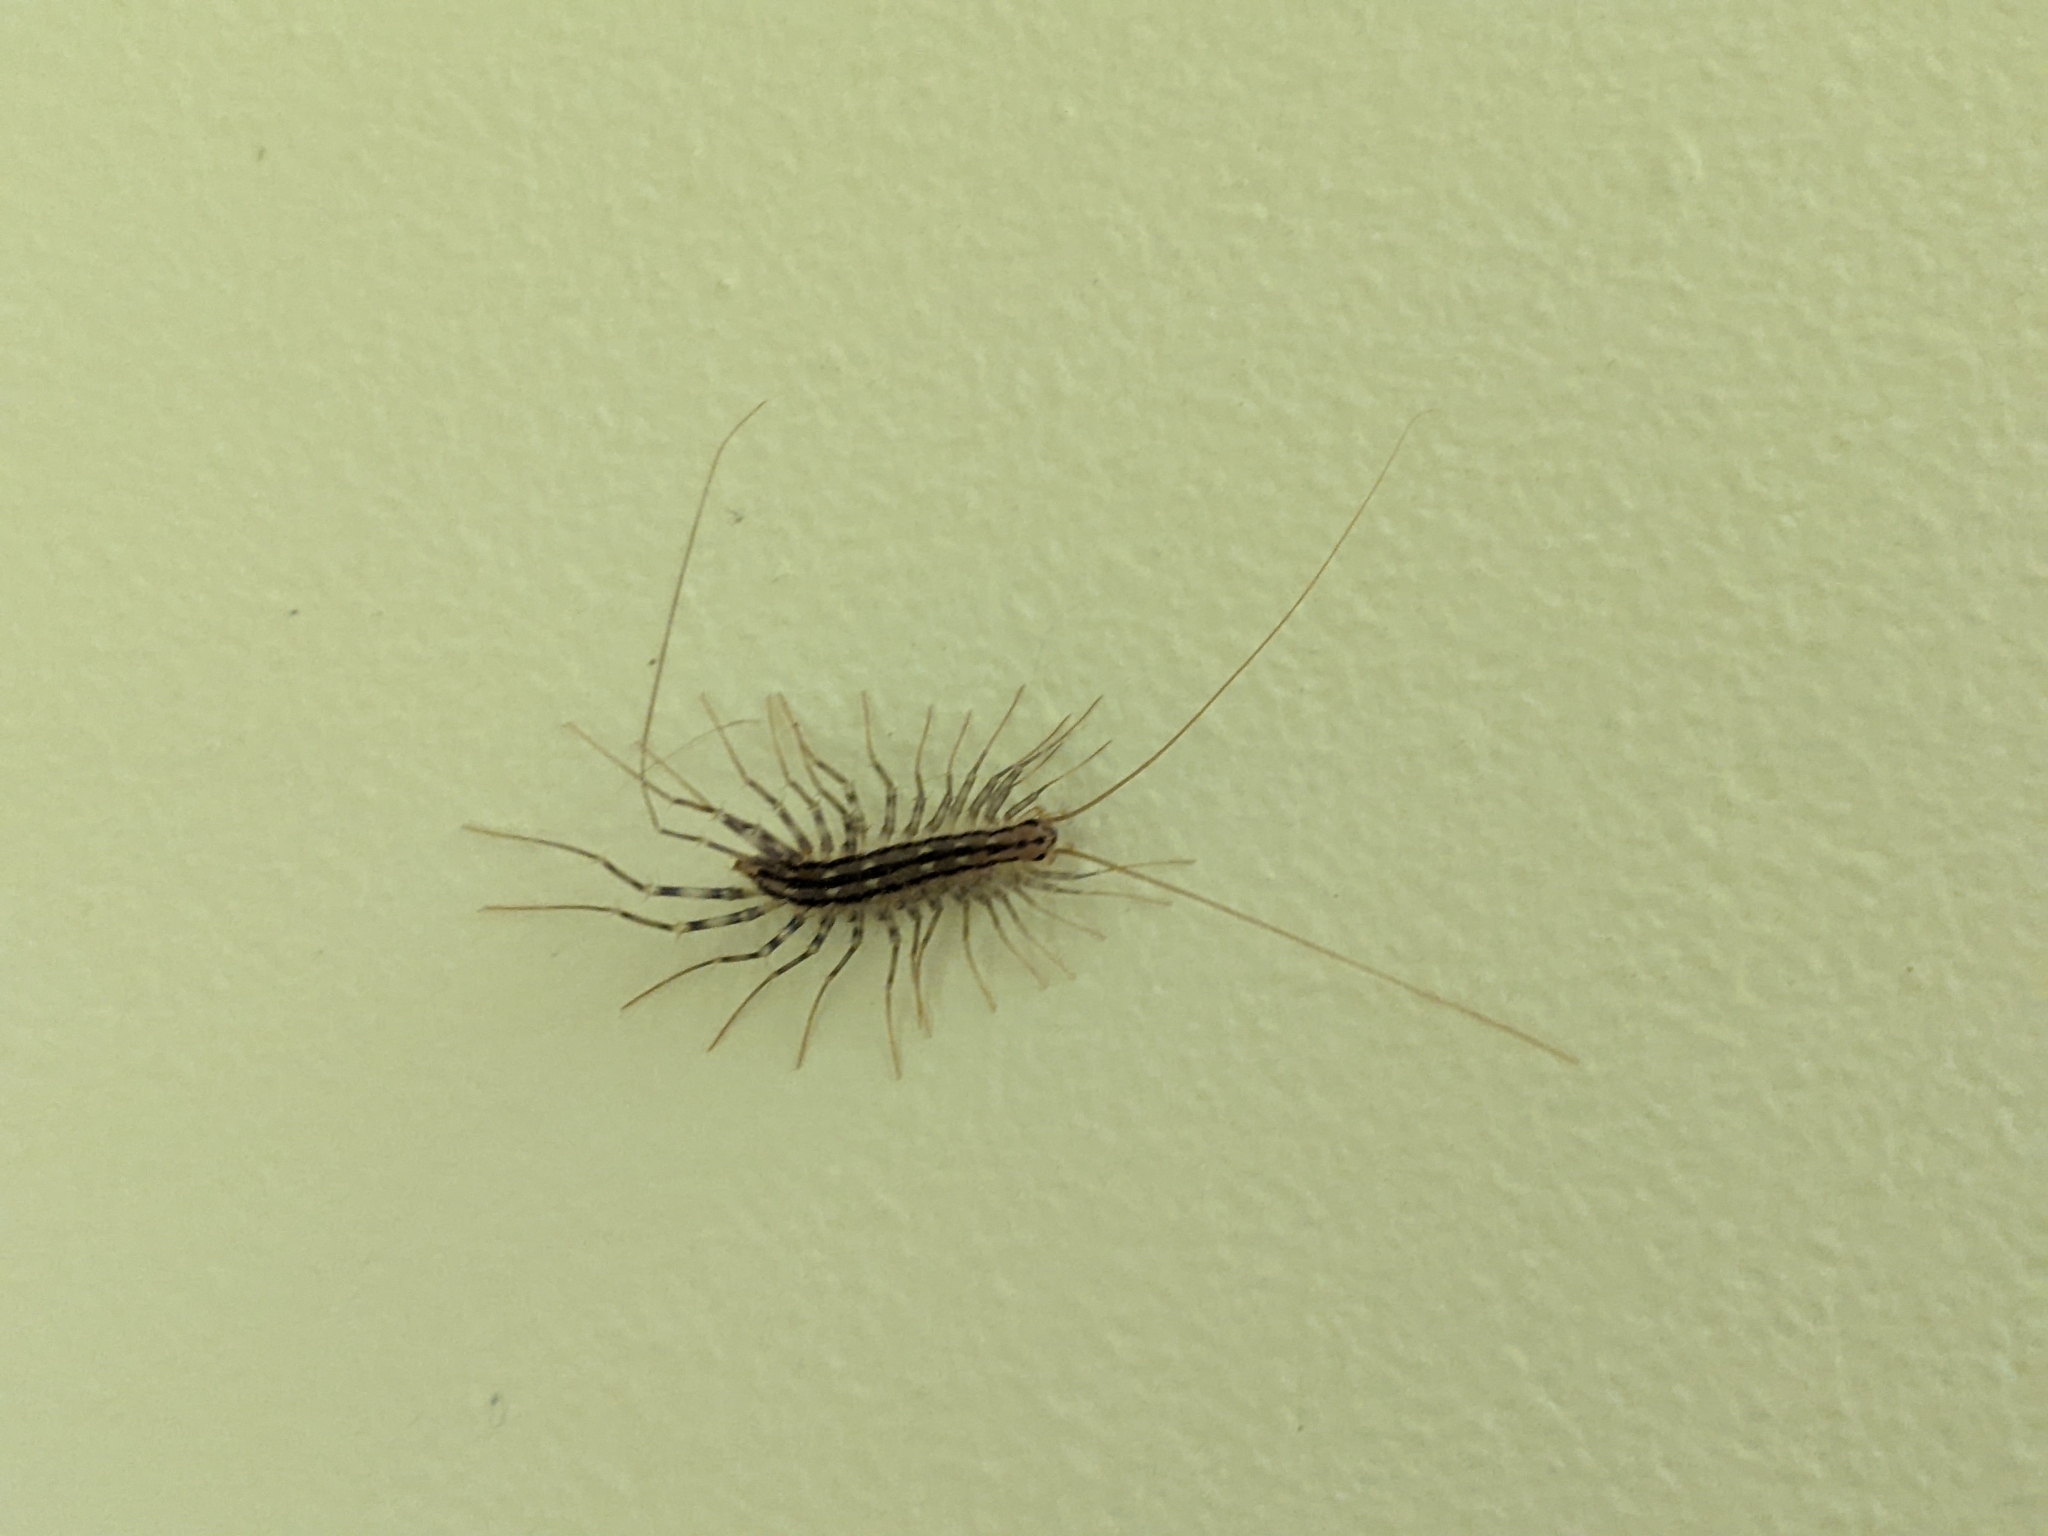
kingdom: Animalia
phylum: Arthropoda
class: Chilopoda
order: Scutigeromorpha
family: Scutigeridae
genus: Scutigera
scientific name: Scutigera coleoptrata
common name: House centipede
